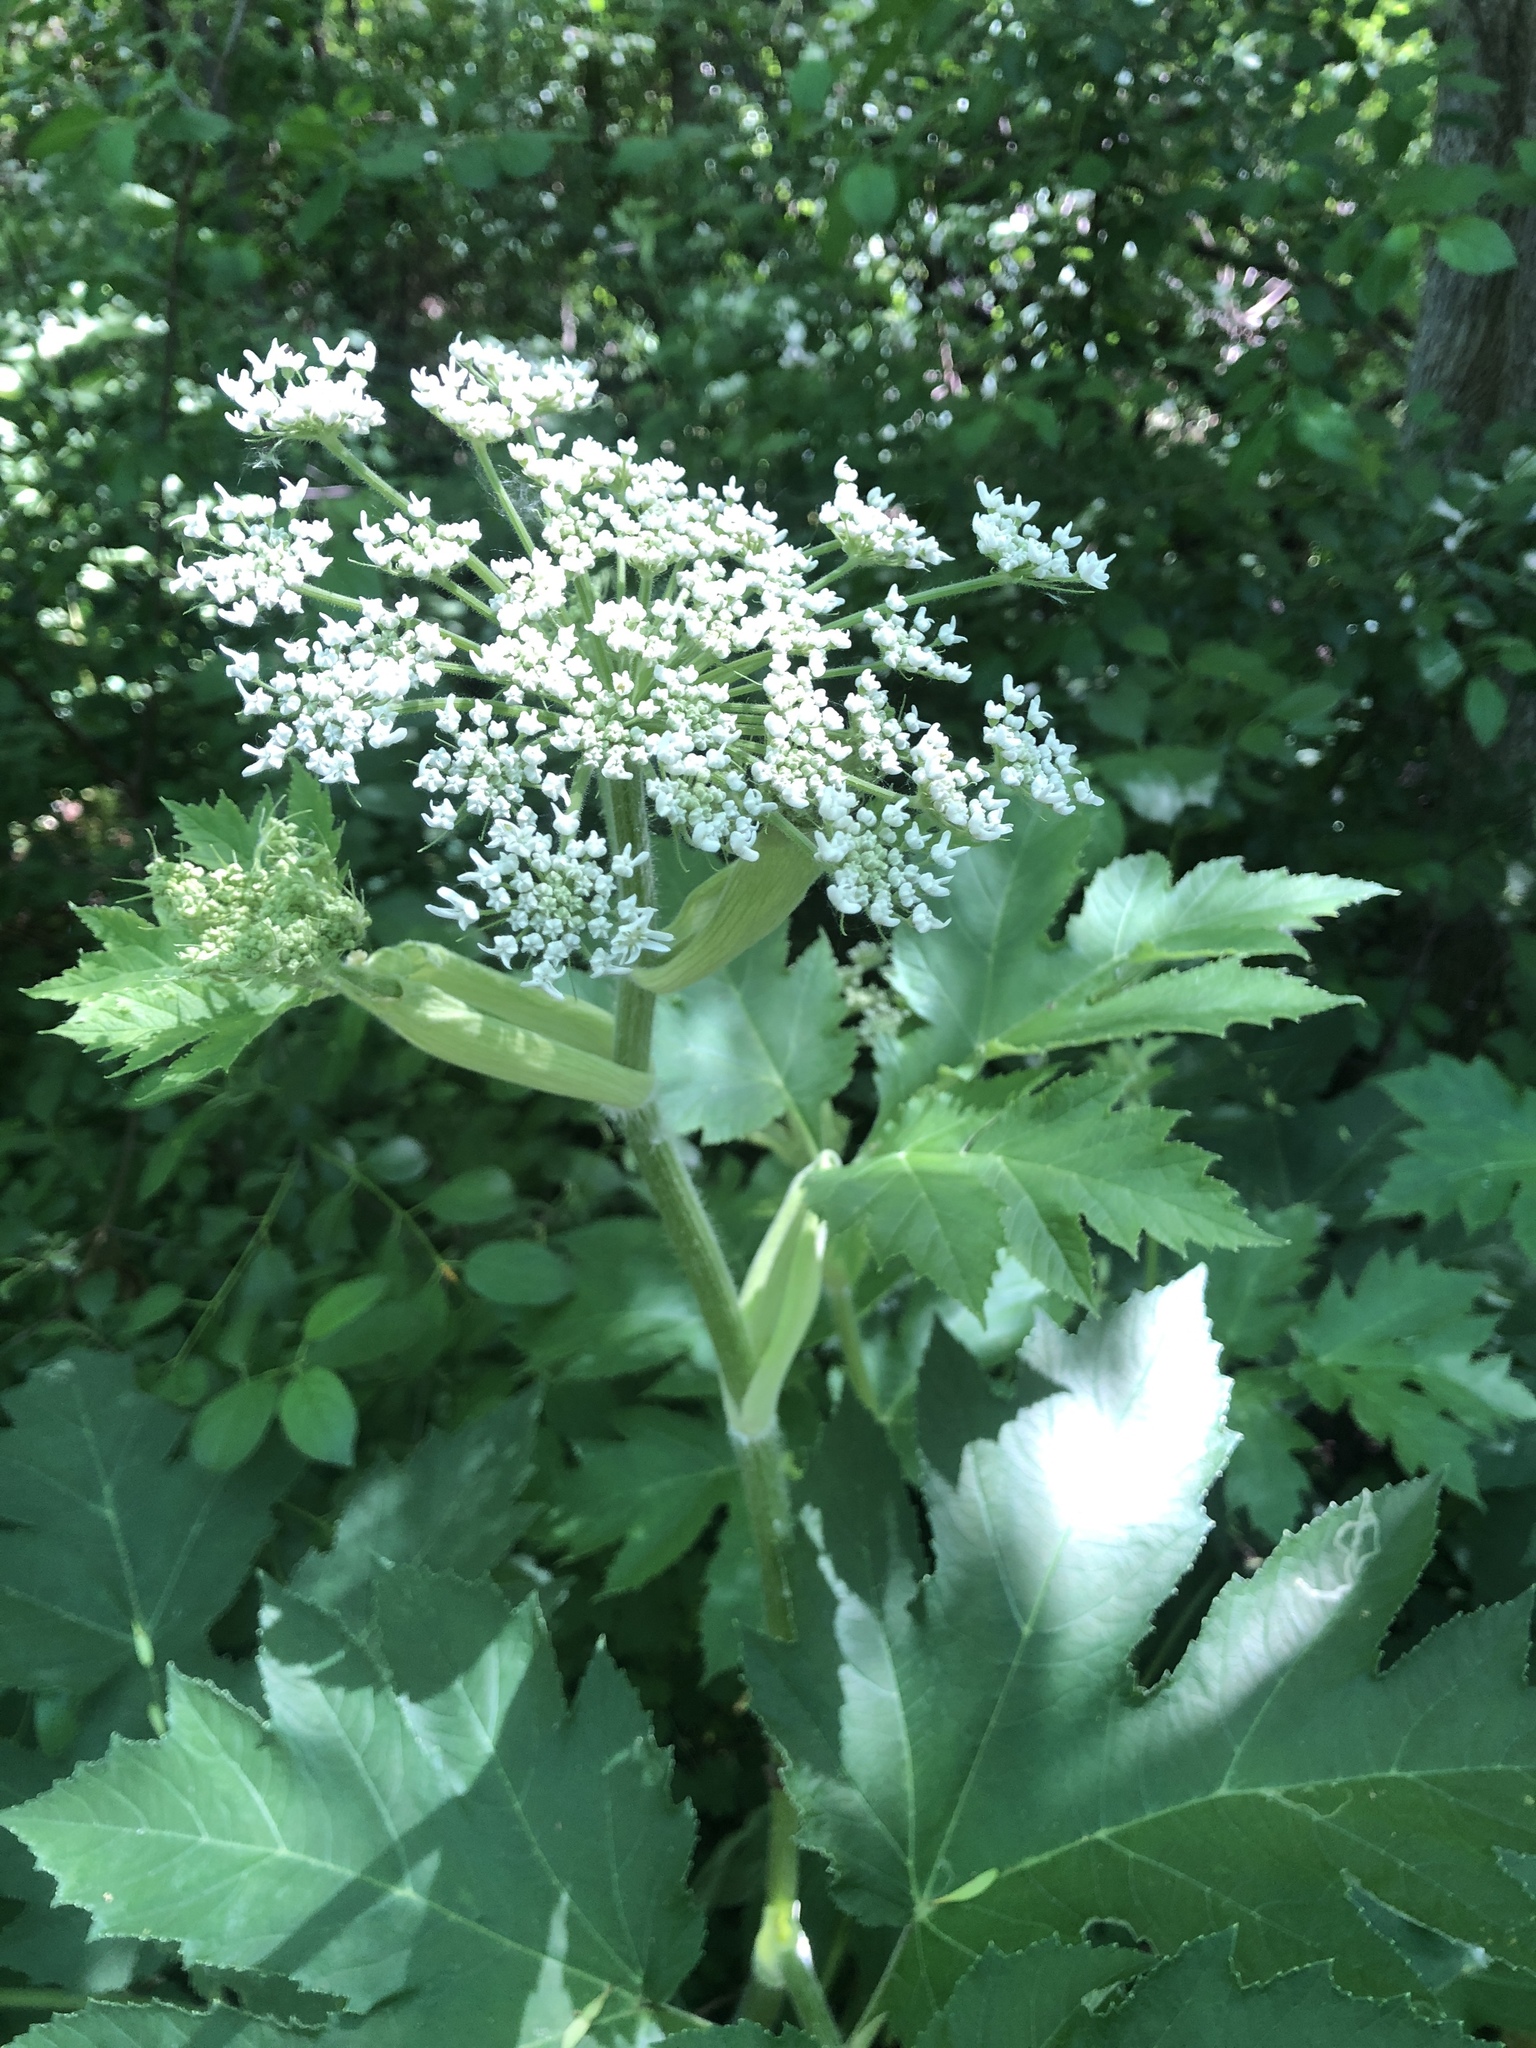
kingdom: Plantae
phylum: Tracheophyta
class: Magnoliopsida
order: Apiales
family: Apiaceae
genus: Heracleum
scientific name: Heracleum maximum
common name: American cow parsnip
